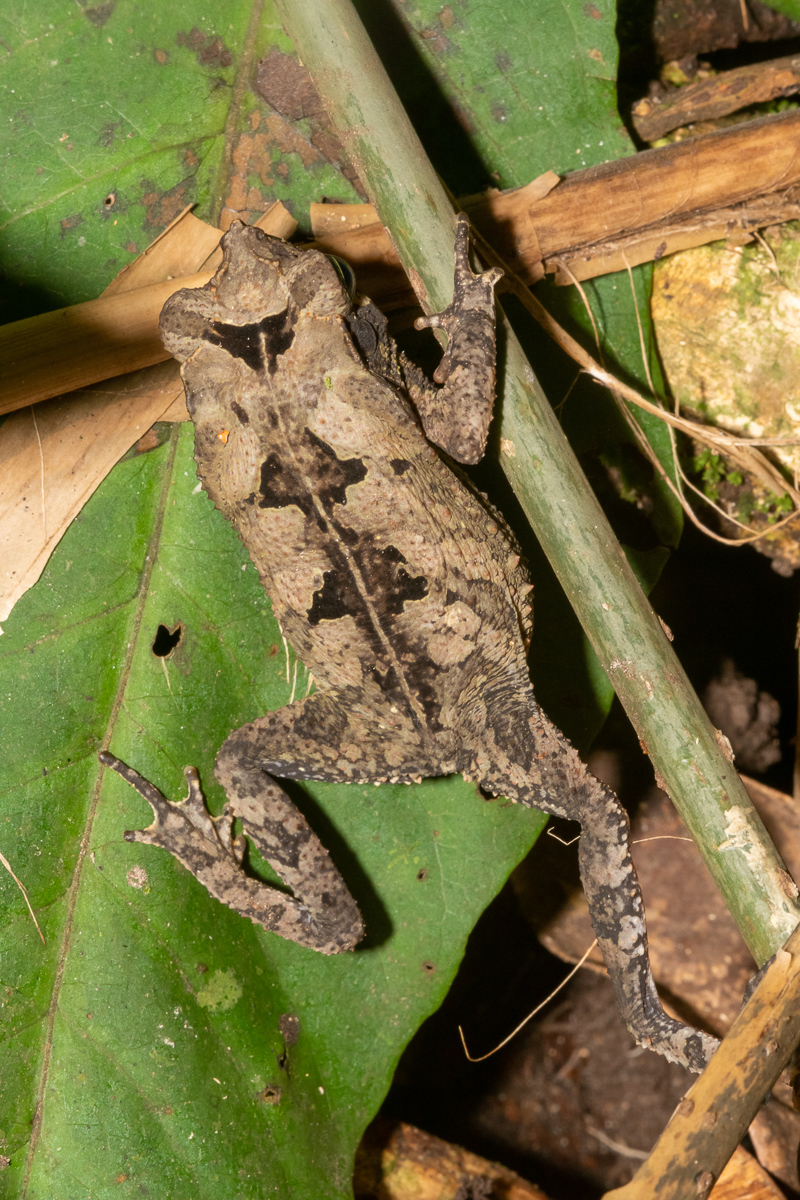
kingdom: Animalia
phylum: Chordata
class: Amphibia
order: Anura
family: Bufonidae
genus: Rhinella
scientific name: Rhinella margaritifera
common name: Mitred toad
